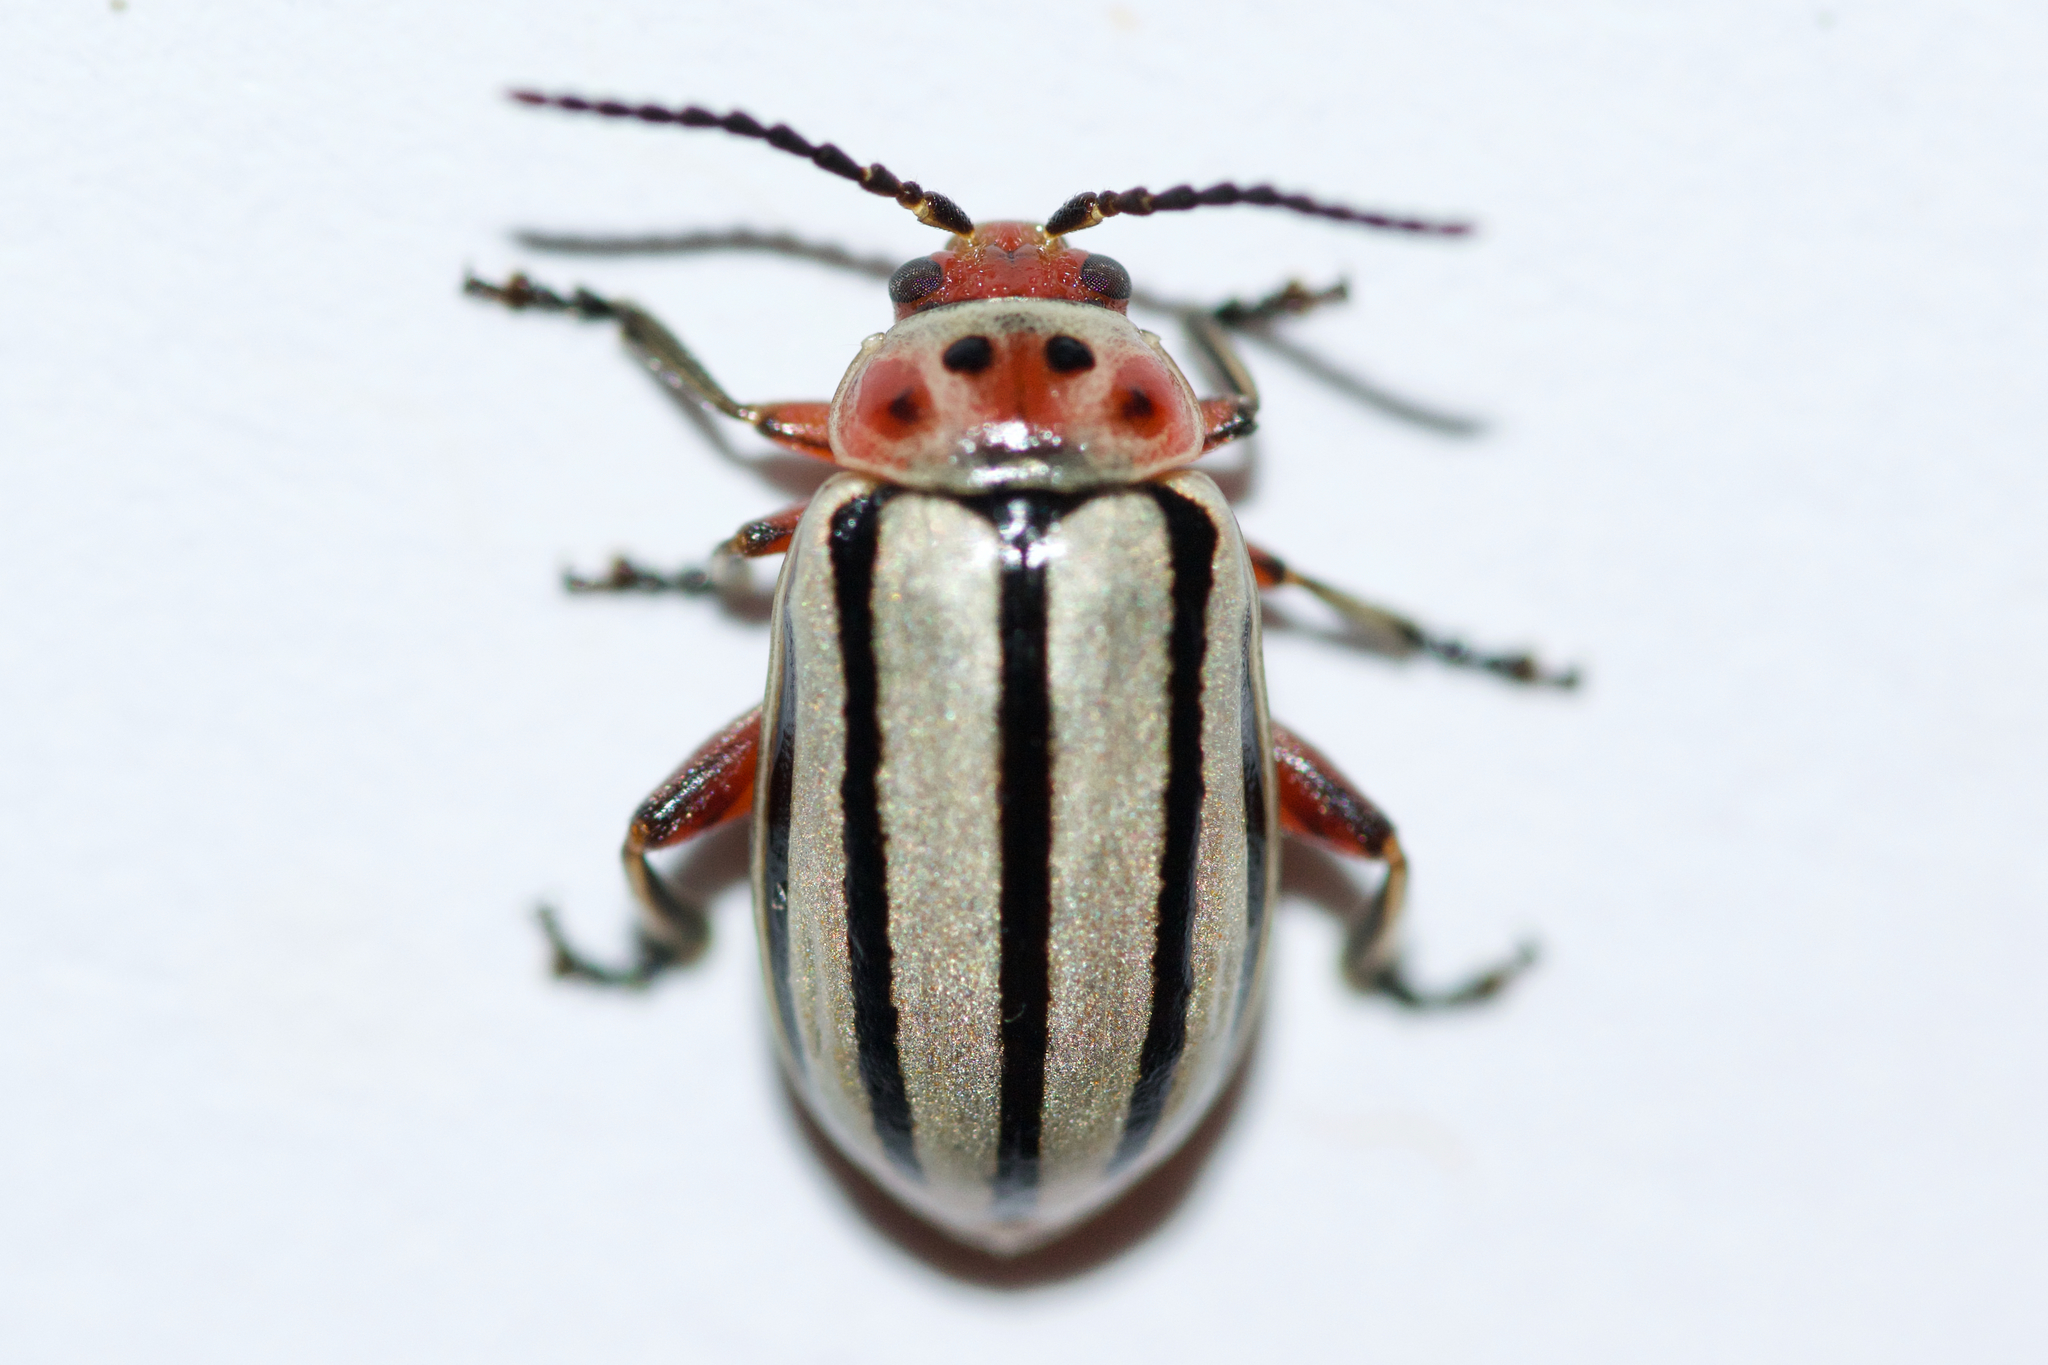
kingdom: Animalia
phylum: Arthropoda
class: Insecta
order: Coleoptera
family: Chrysomelidae
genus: Disonycha
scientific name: Disonycha alternata
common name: Striped willow leaf beetle
